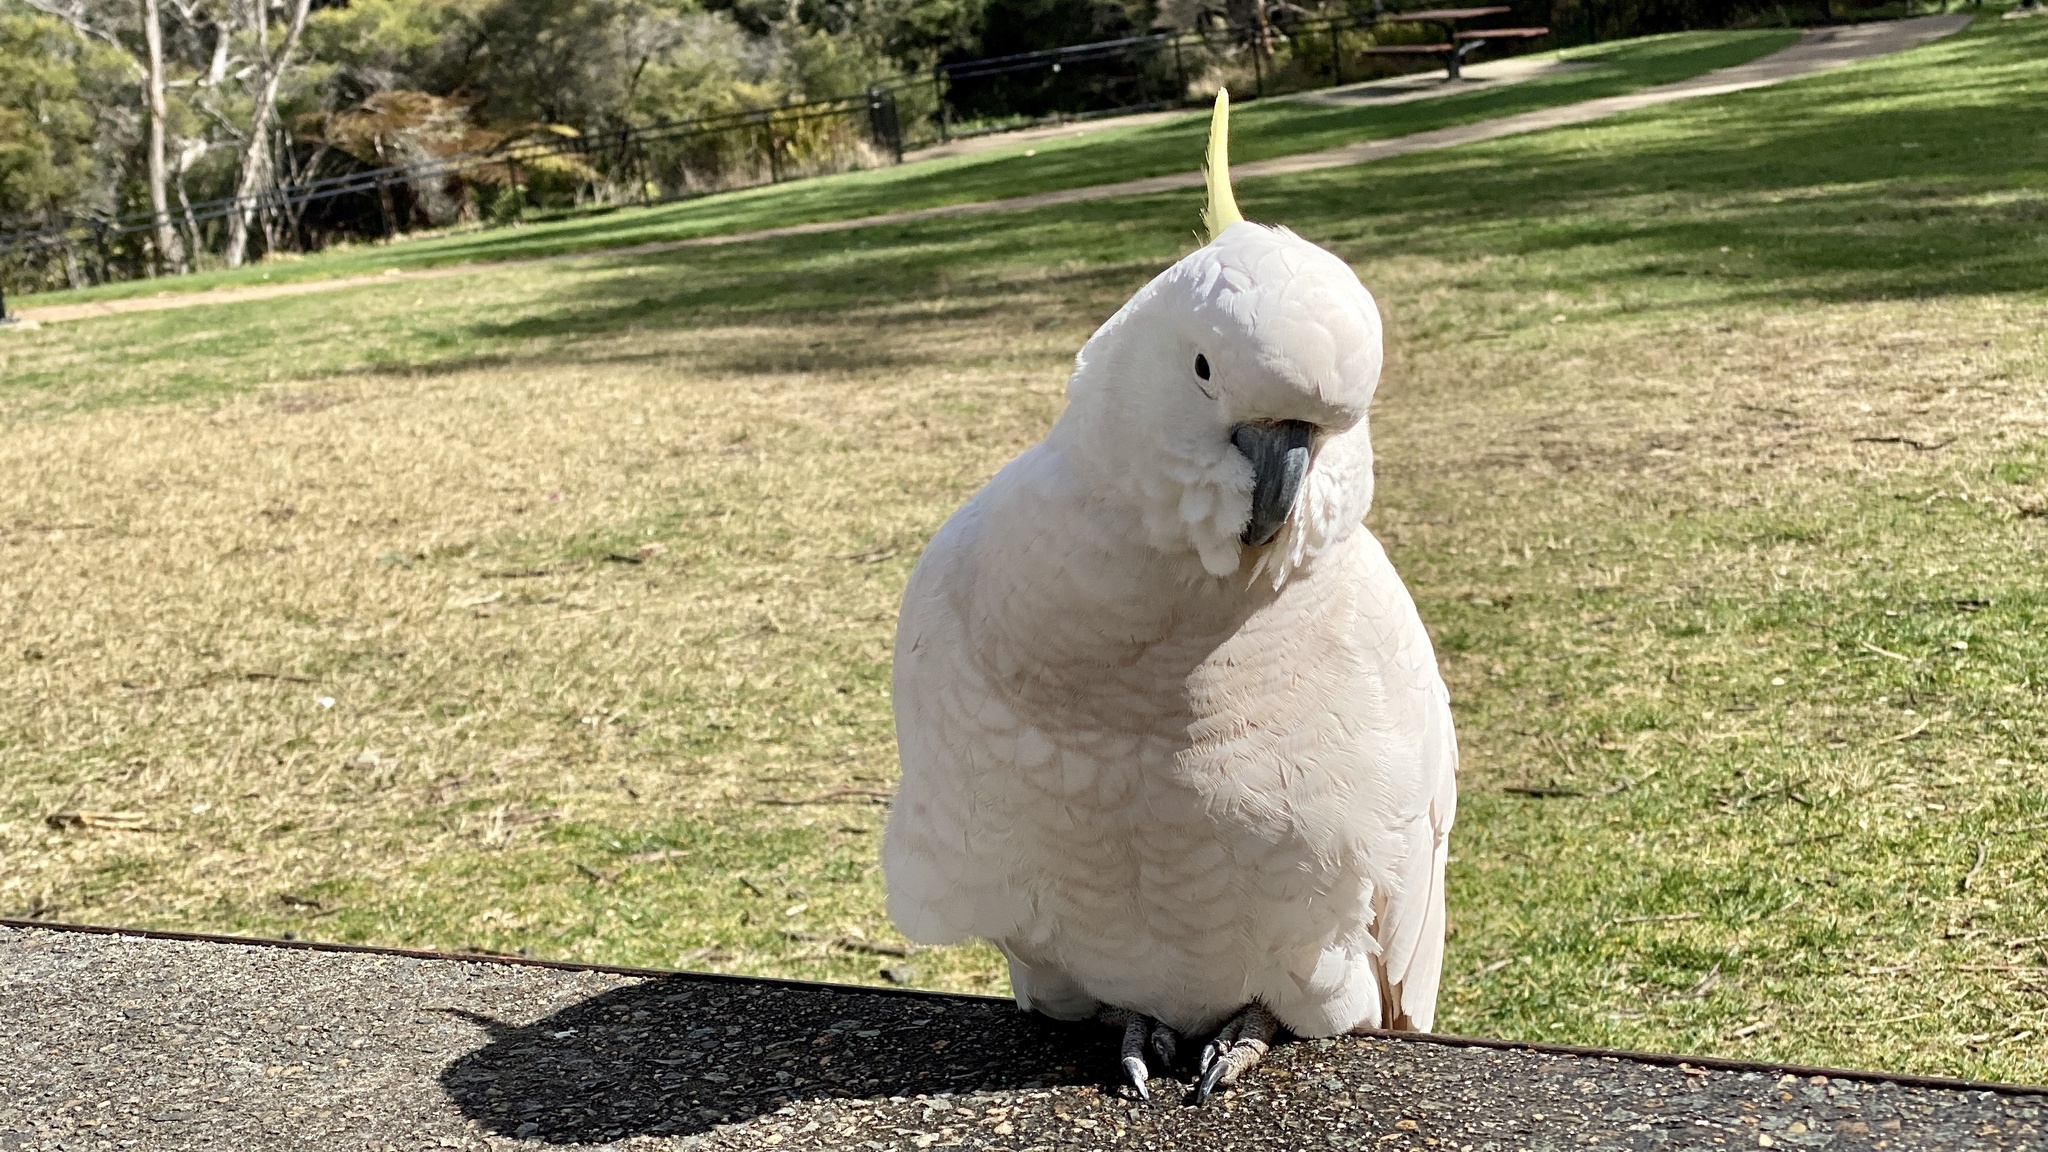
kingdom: Animalia
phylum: Chordata
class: Aves
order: Psittaciformes
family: Psittacidae
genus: Cacatua
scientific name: Cacatua galerita
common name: Sulphur-crested cockatoo
